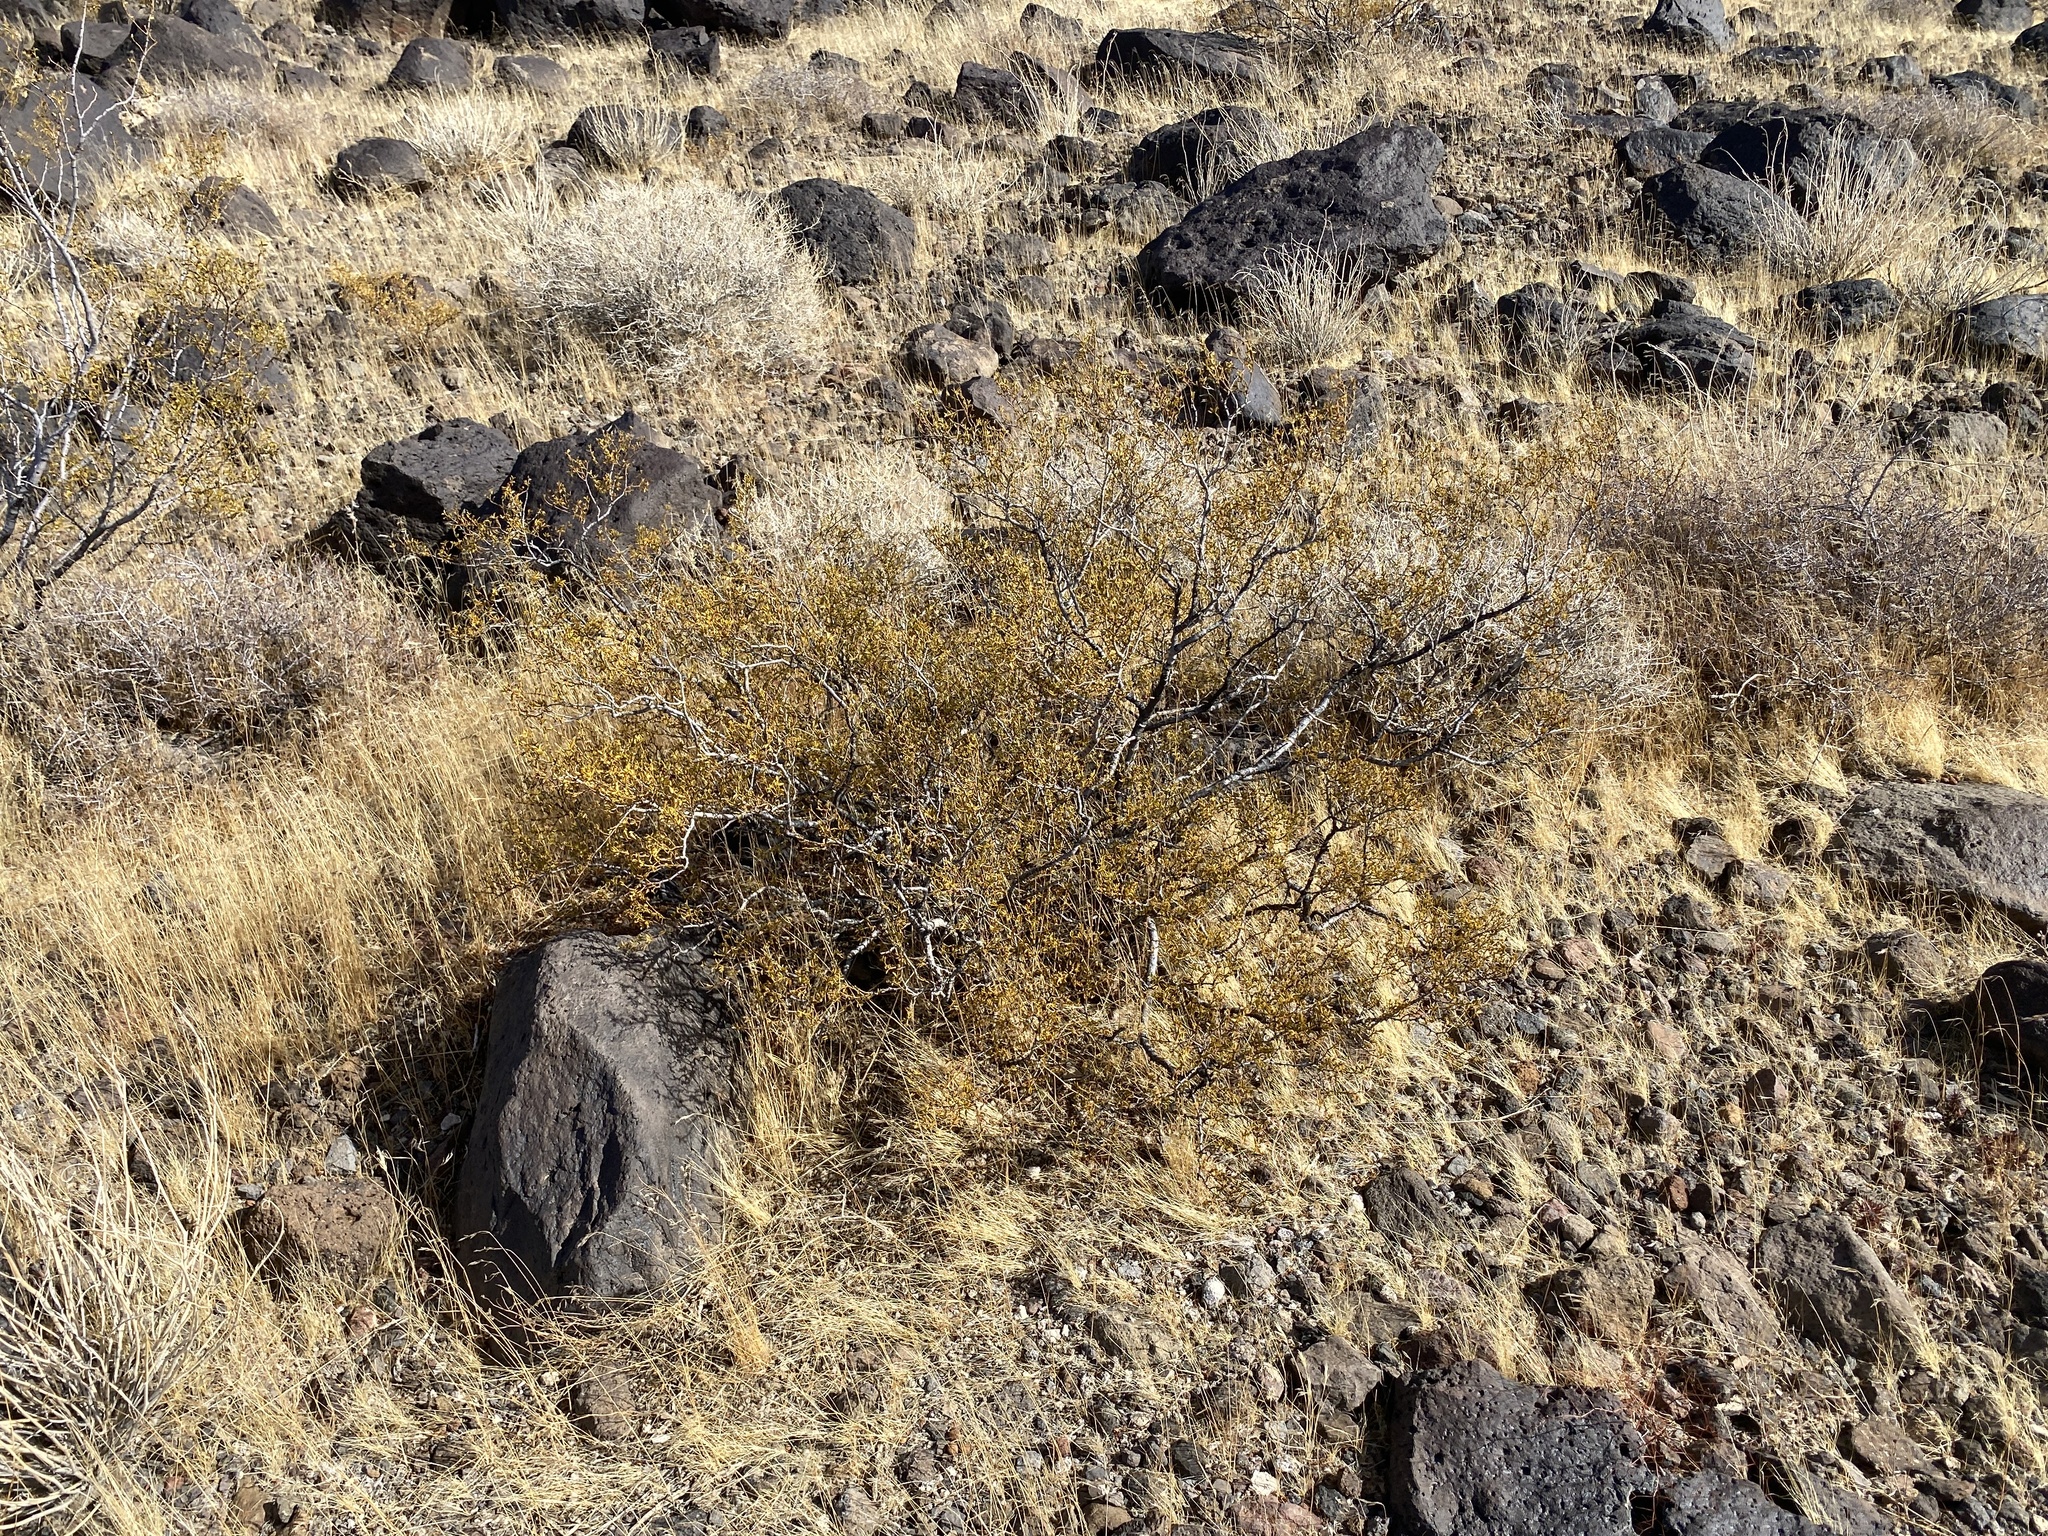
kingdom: Plantae
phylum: Tracheophyta
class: Magnoliopsida
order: Zygophyllales
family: Zygophyllaceae
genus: Larrea
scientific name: Larrea tridentata
